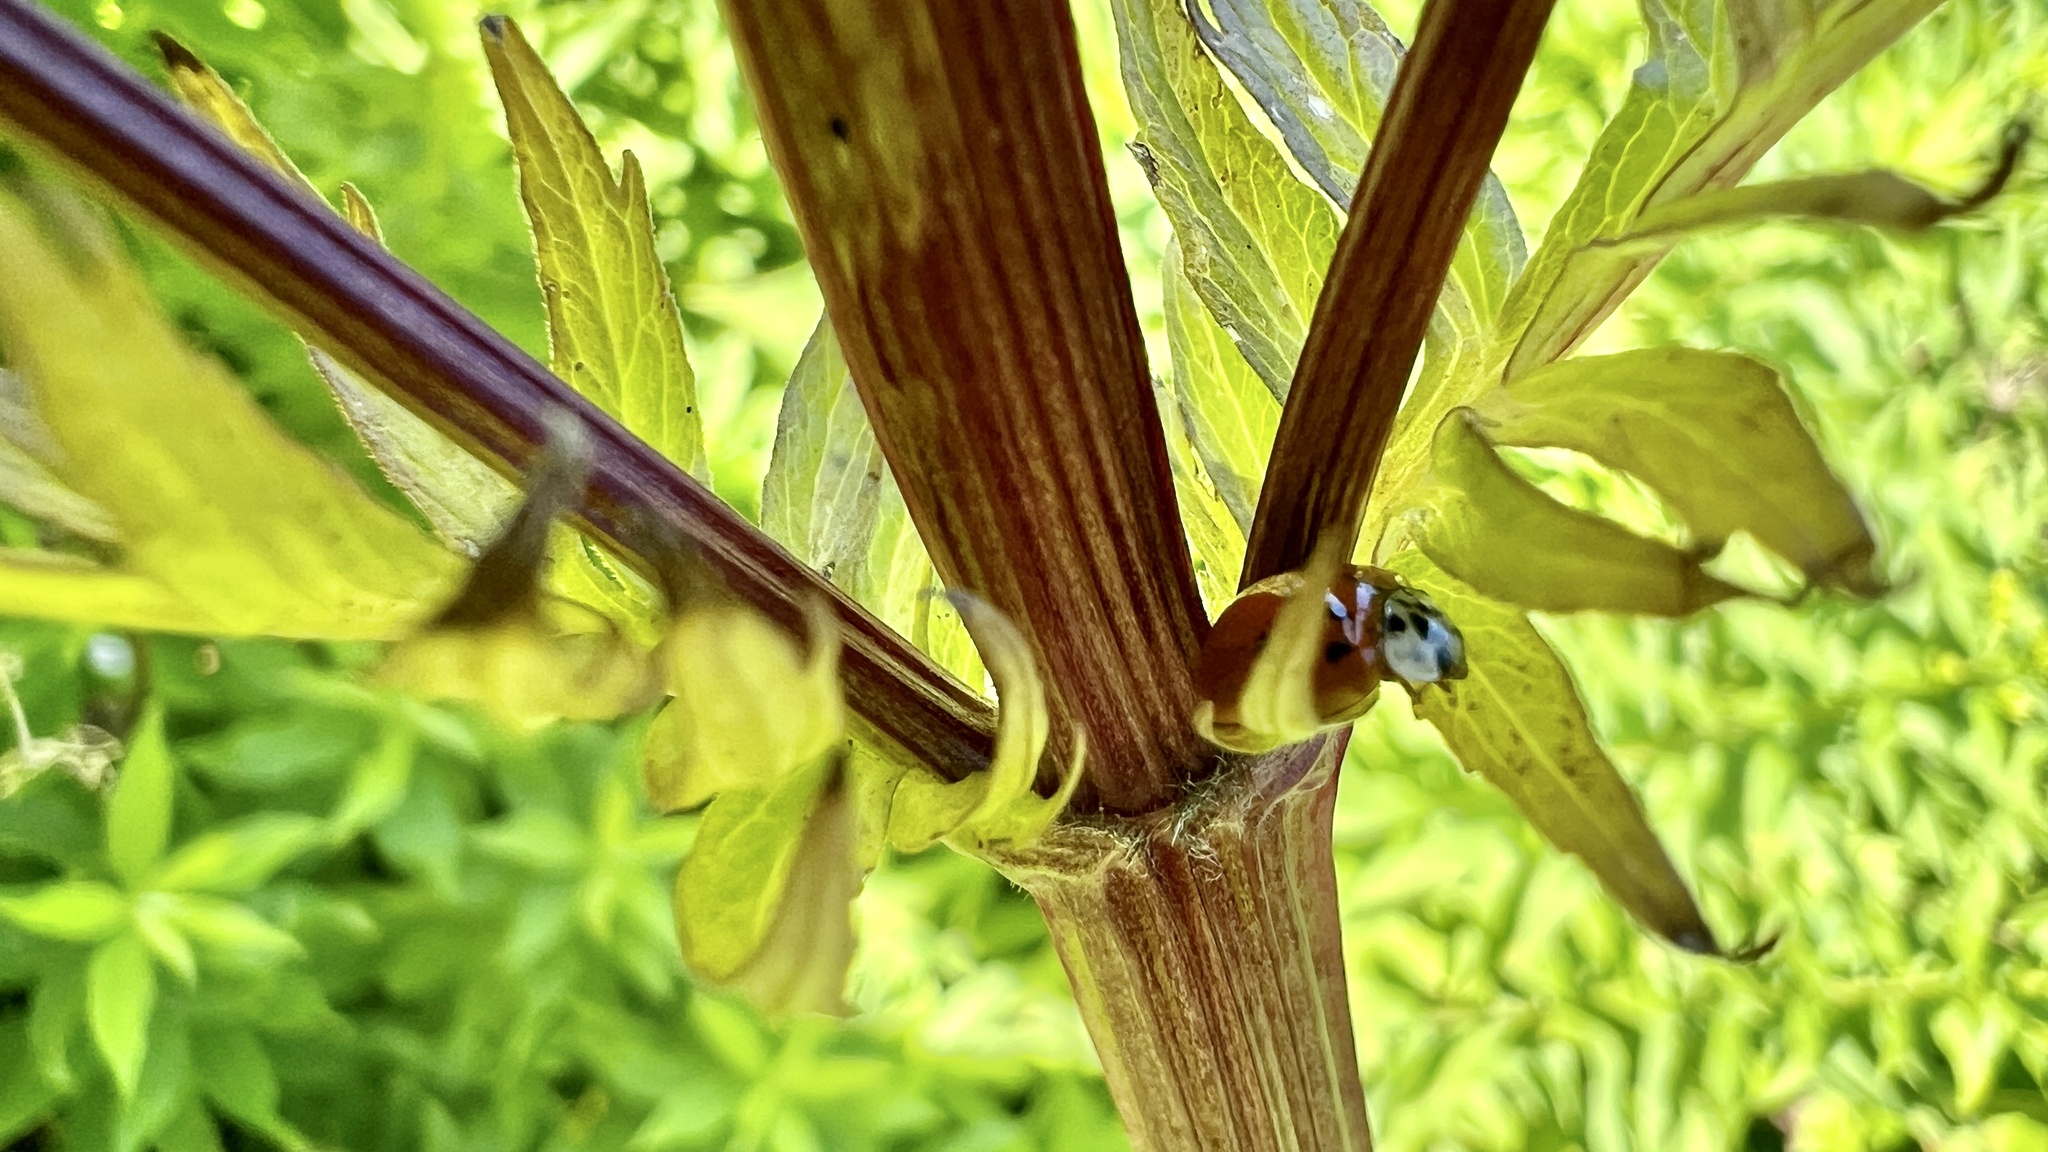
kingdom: Plantae
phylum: Tracheophyta
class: Magnoliopsida
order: Dipsacales
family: Caprifoliaceae
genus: Valeriana
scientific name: Valeriana officinalis
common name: Common valerian
